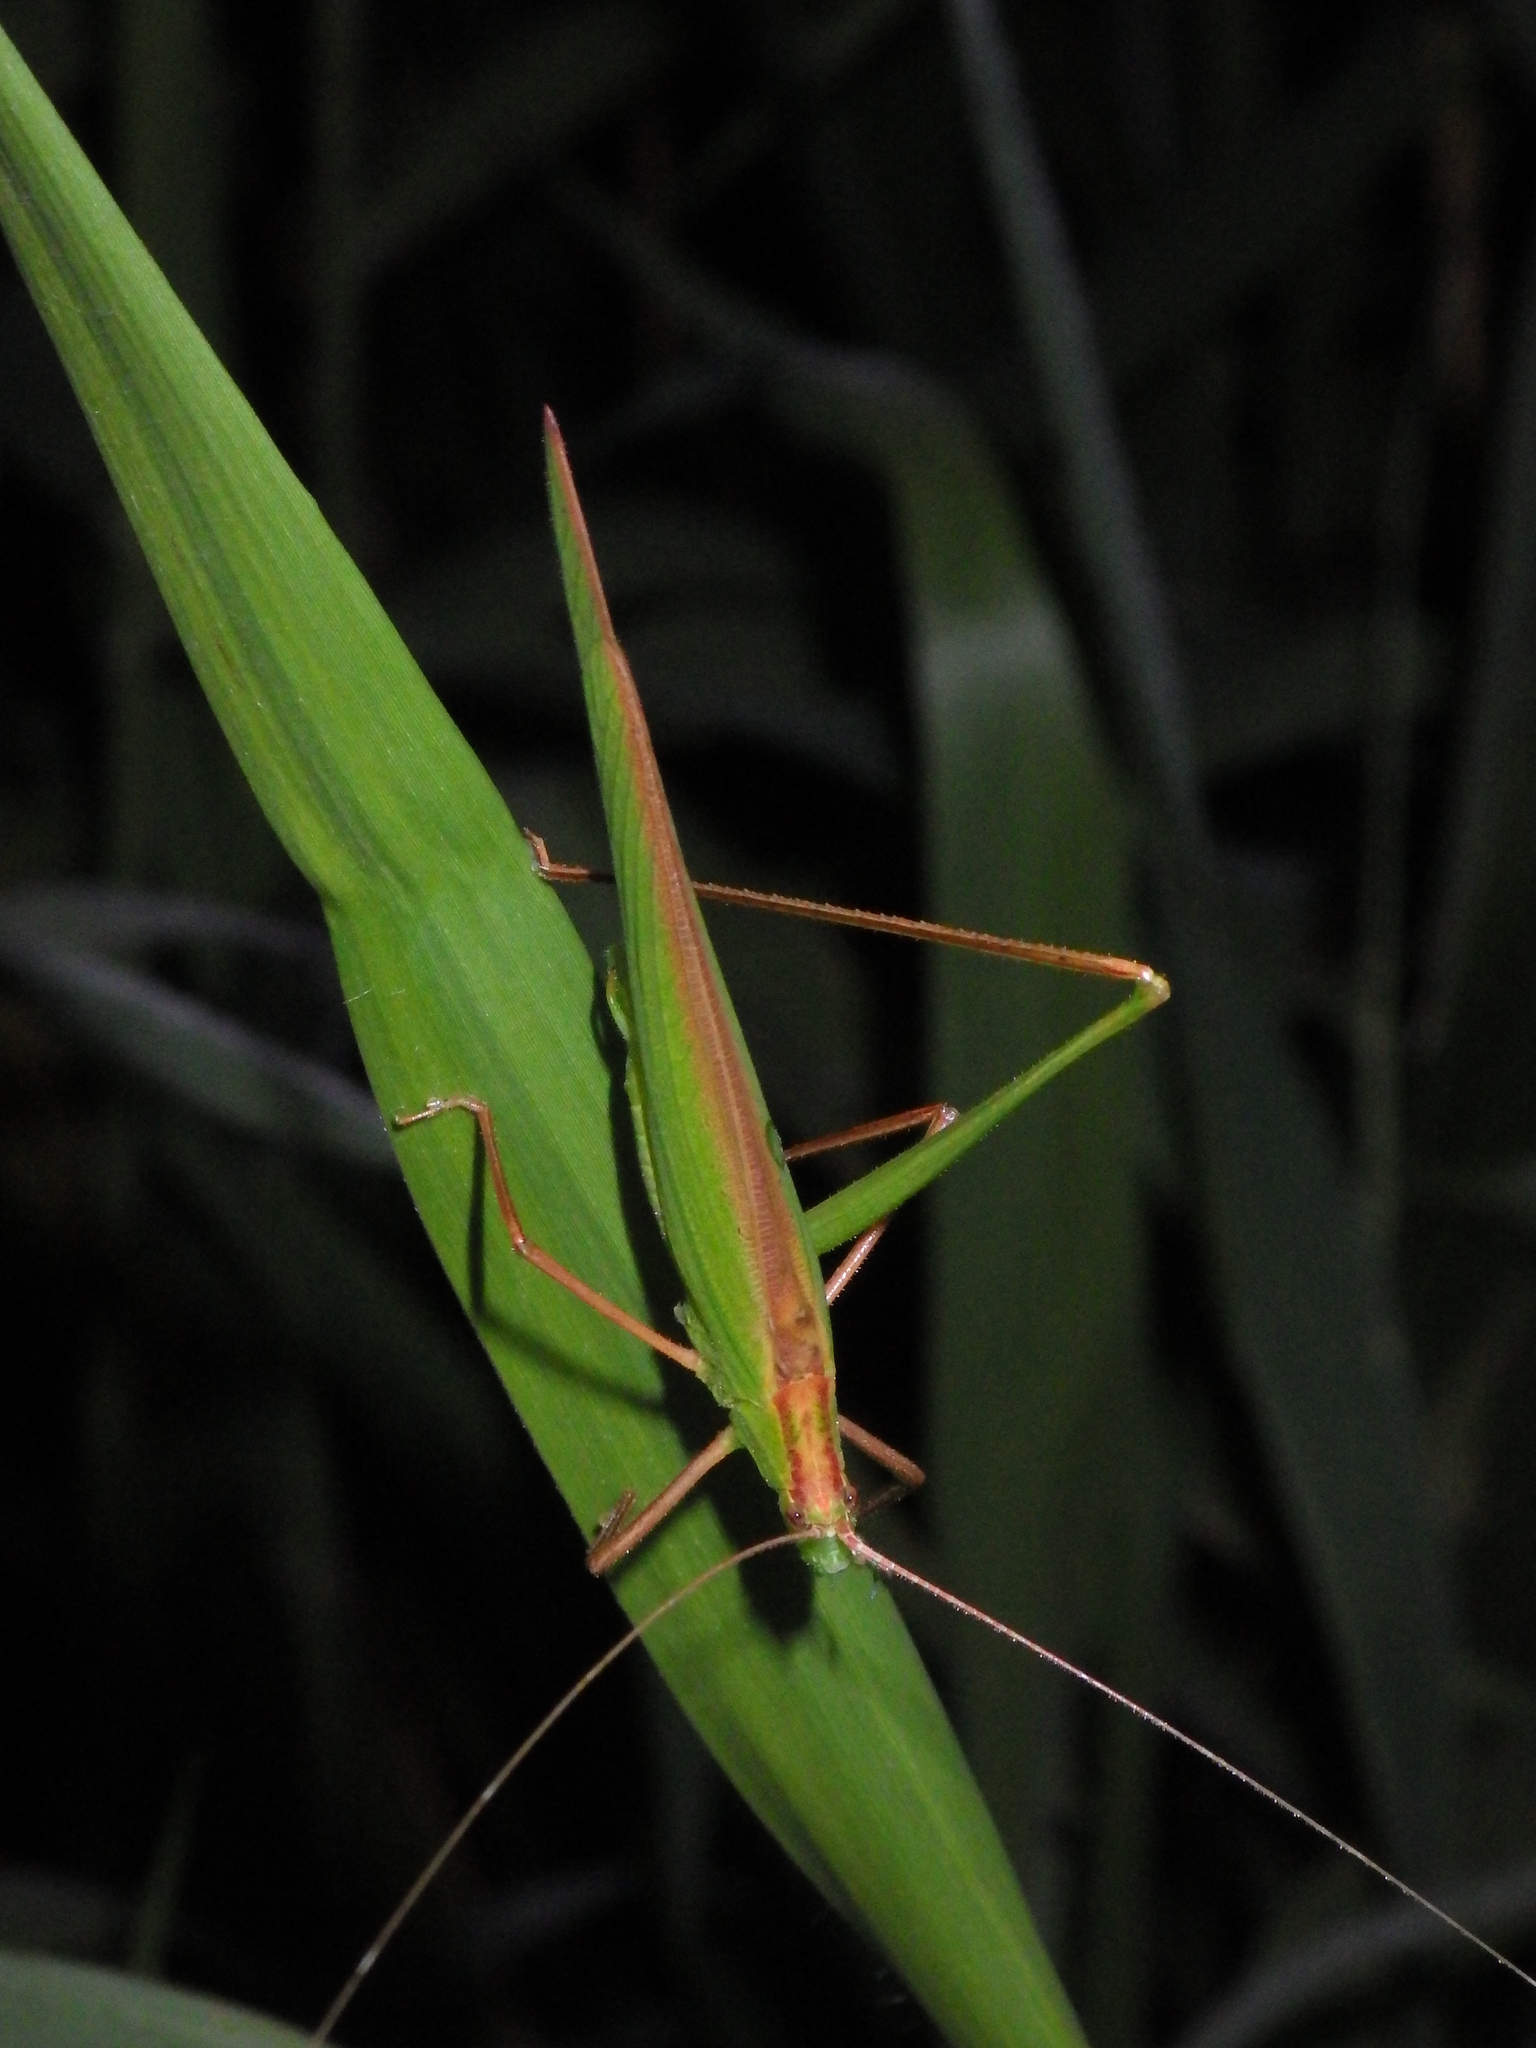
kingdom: Animalia
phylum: Arthropoda
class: Insecta
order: Orthoptera
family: Tettigoniidae
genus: Ducetia
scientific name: Ducetia antipoda
